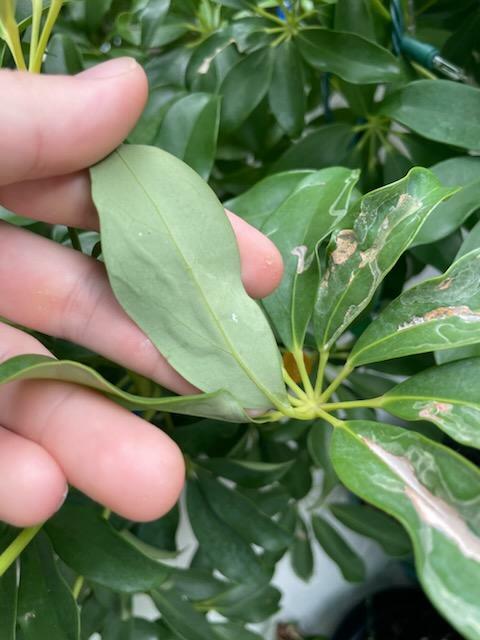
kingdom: Animalia
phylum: Arthropoda
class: Insecta
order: Diptera
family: Agromyzidae
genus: Liriomyza
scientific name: Liriomyza schmidti
